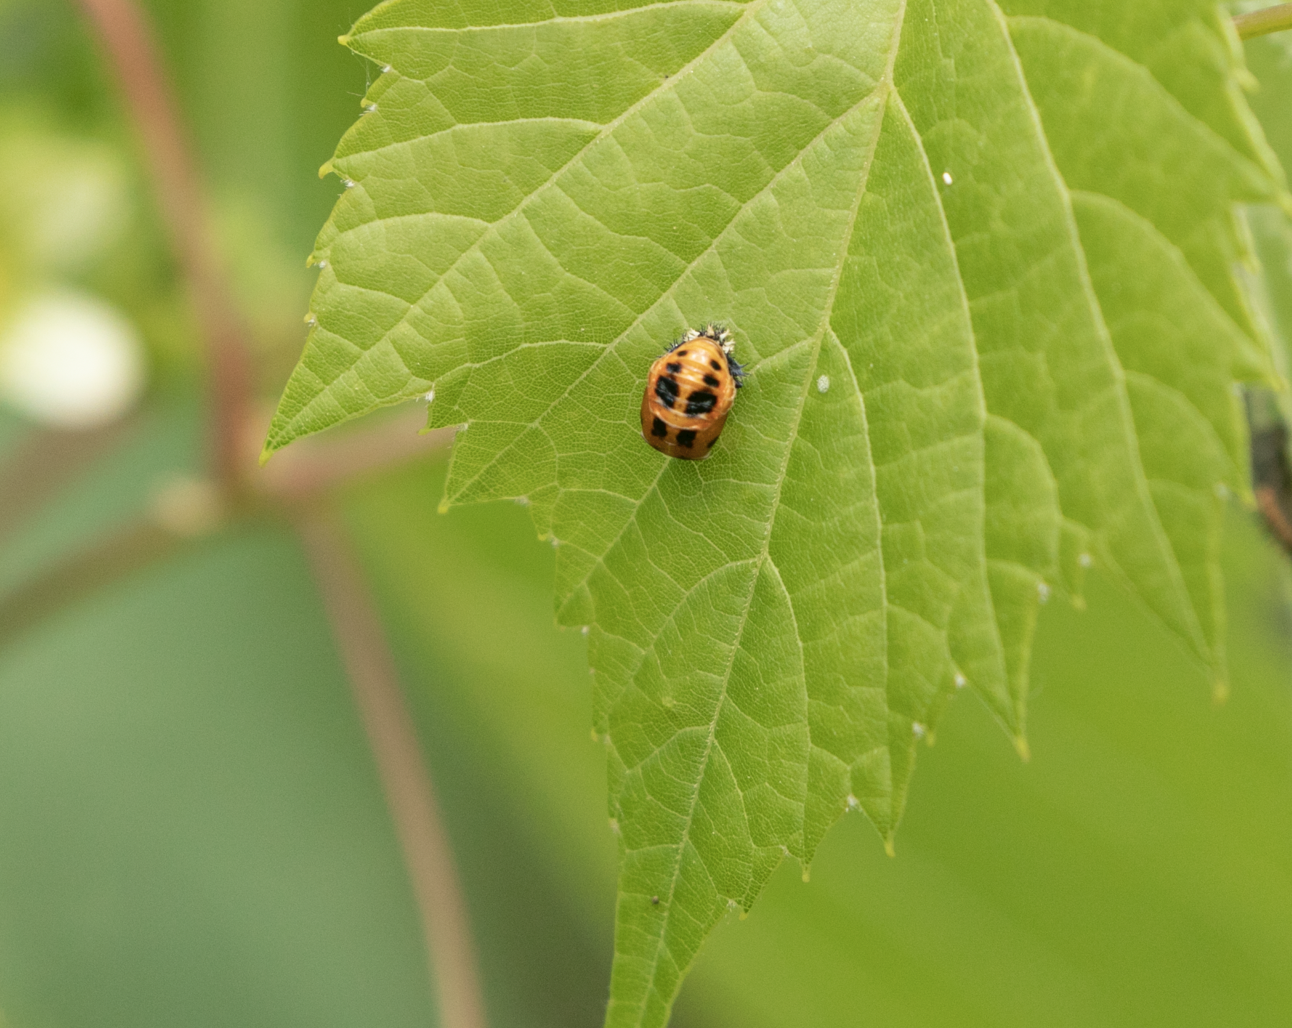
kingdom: Animalia
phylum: Arthropoda
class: Insecta
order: Coleoptera
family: Coccinellidae
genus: Harmonia
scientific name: Harmonia axyridis
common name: Harlequin ladybird
